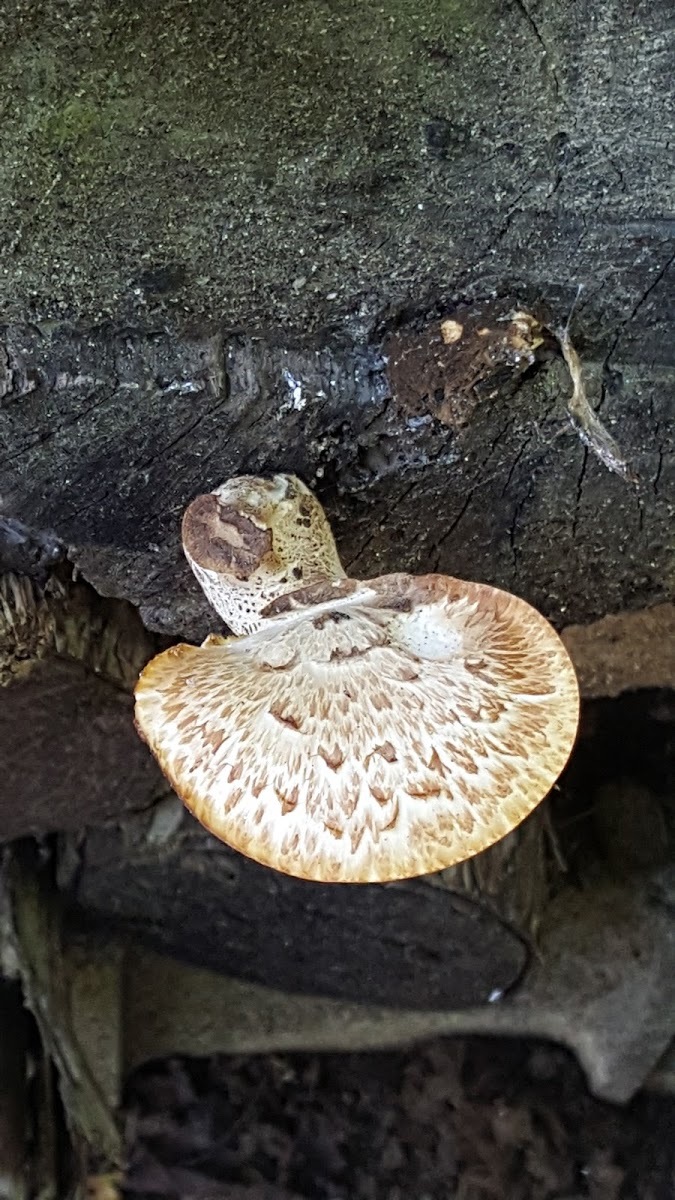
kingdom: Fungi
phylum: Basidiomycota
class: Agaricomycetes
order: Polyporales
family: Polyporaceae
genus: Cerioporus
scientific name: Cerioporus squamosus
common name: Dryad's saddle
